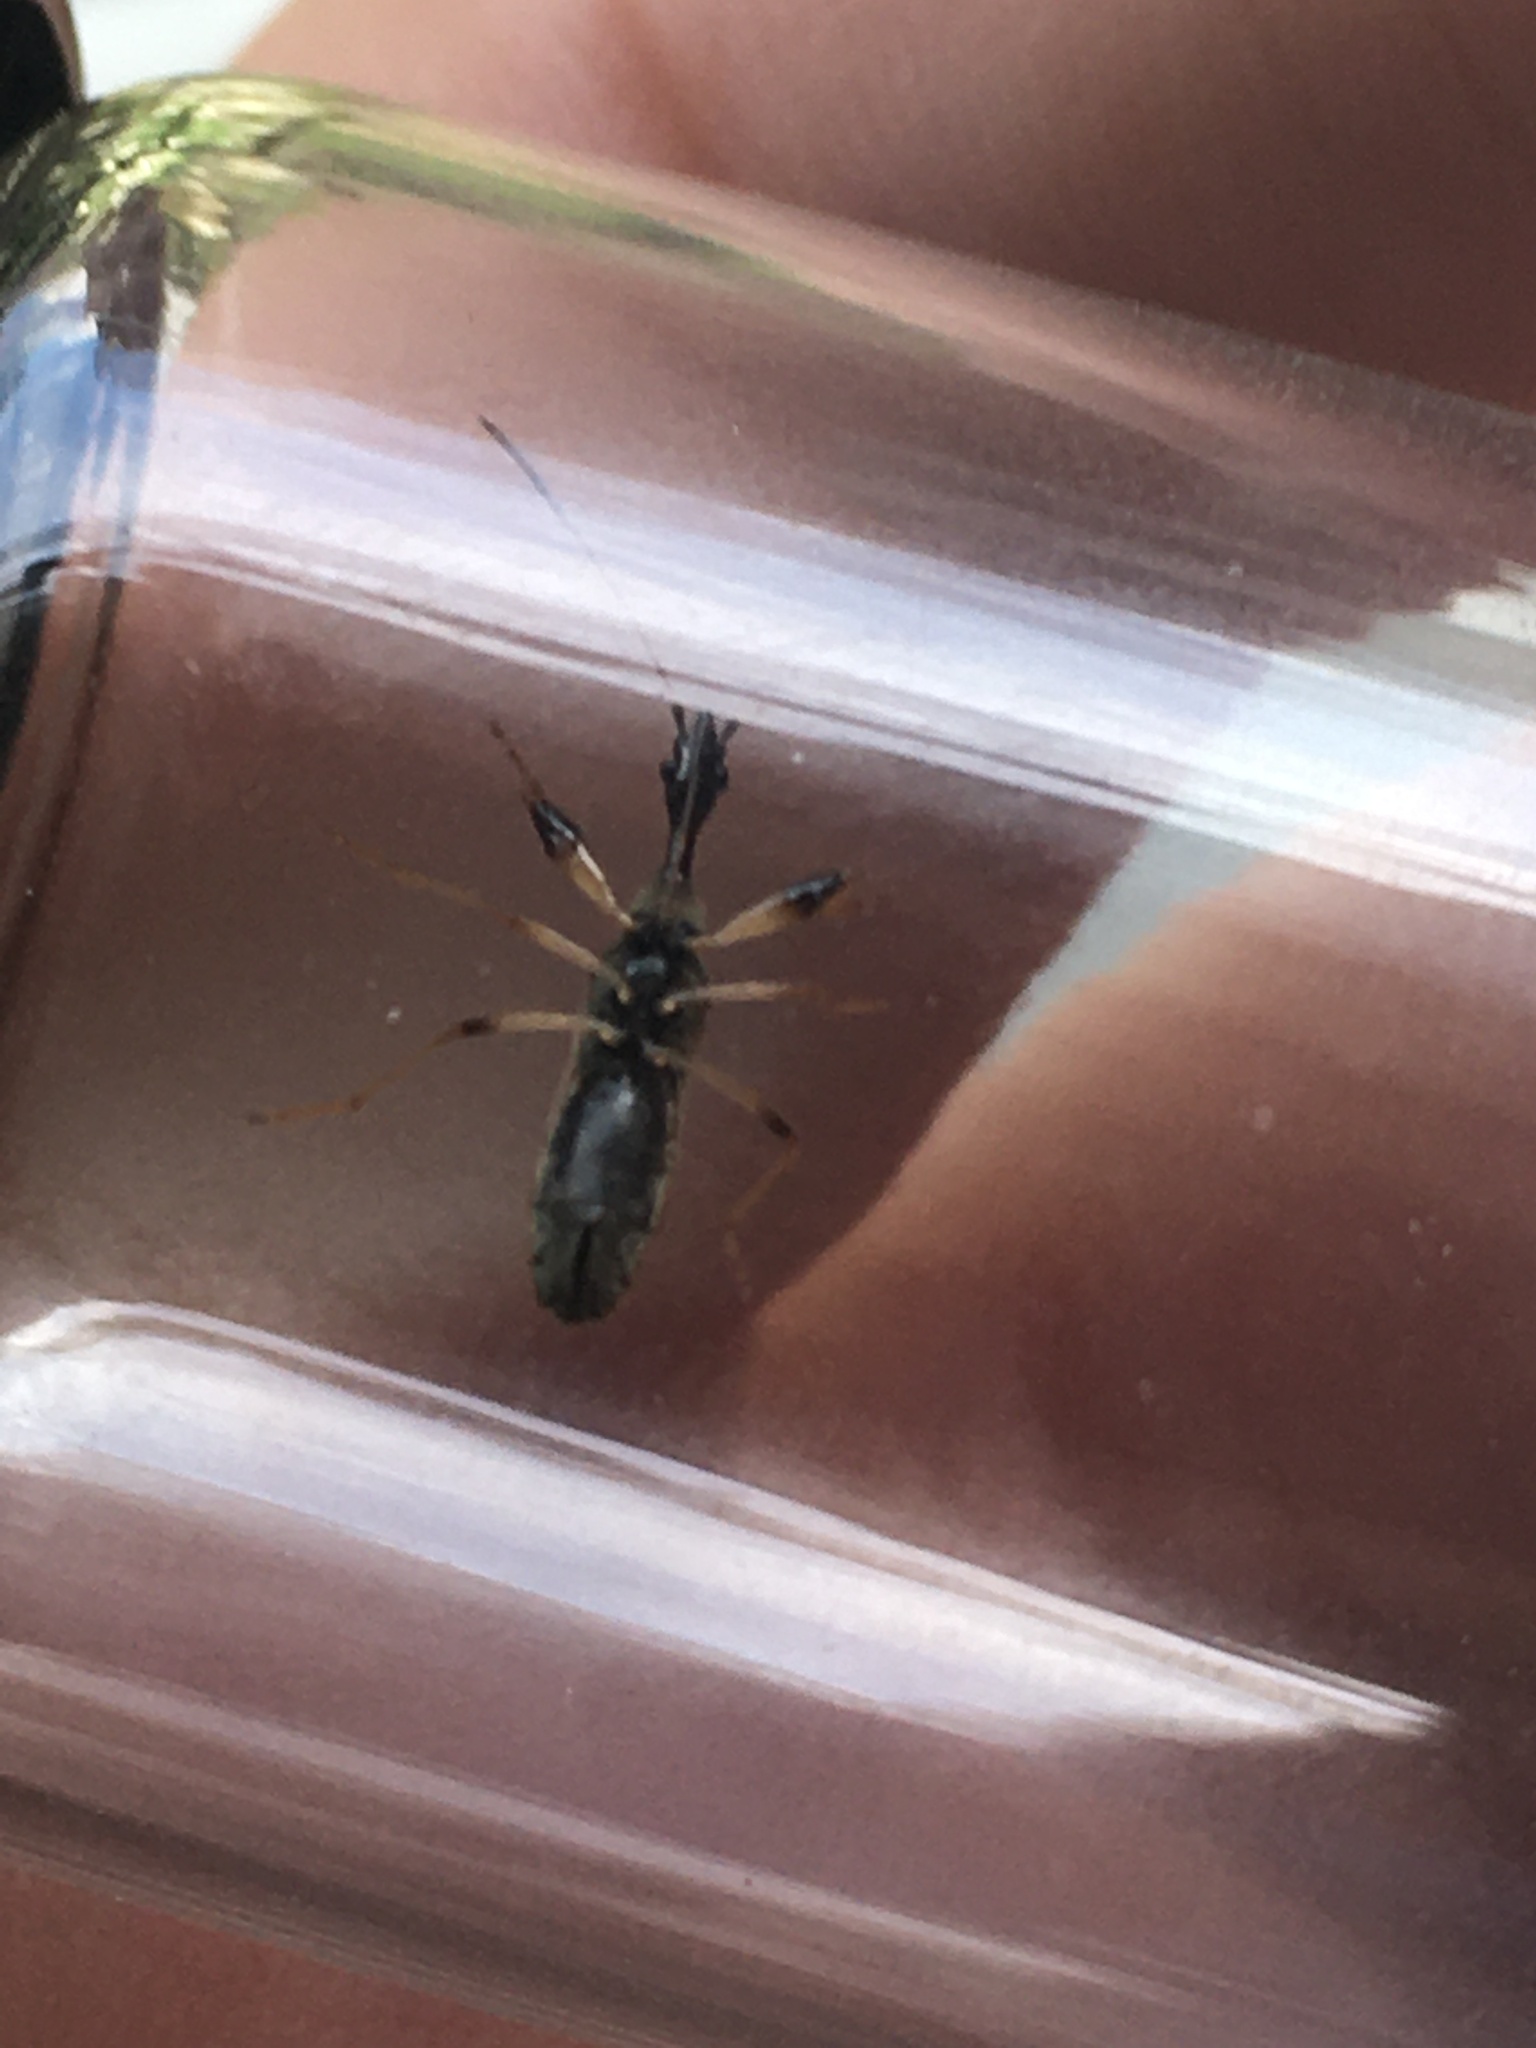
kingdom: Animalia
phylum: Arthropoda
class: Insecta
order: Hemiptera
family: Rhyparochromidae
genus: Myodocha
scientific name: Myodocha serripes
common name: Long-necked seed bug
